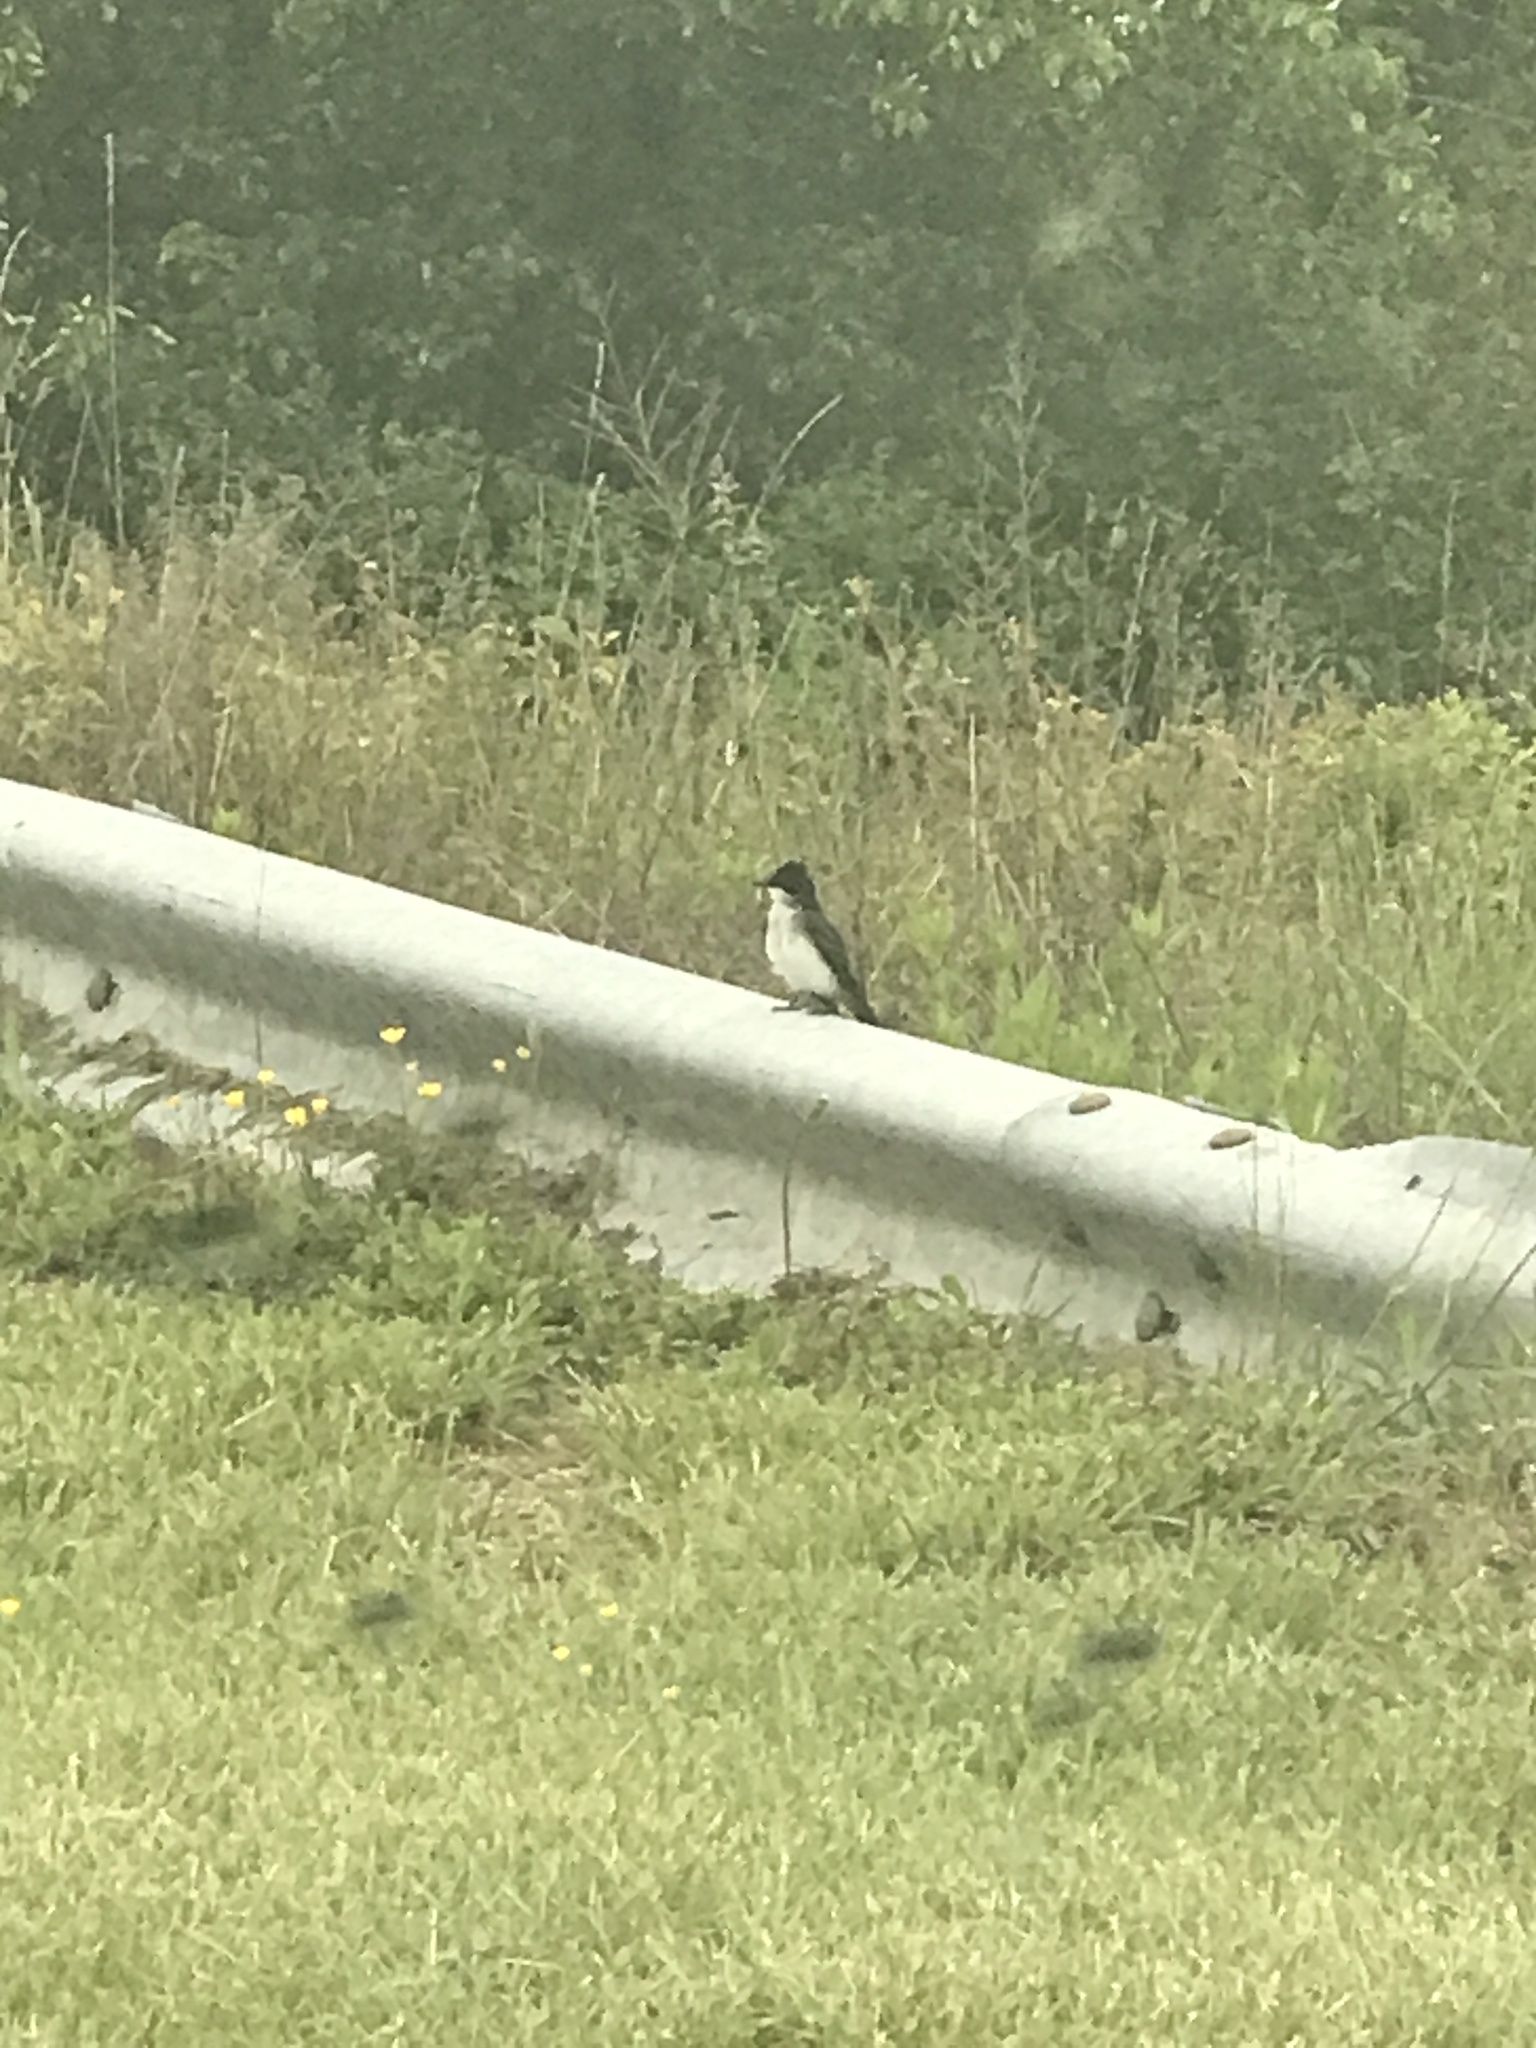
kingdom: Animalia
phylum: Chordata
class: Aves
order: Passeriformes
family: Tyrannidae
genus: Tyrannus
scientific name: Tyrannus tyrannus
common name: Eastern kingbird
